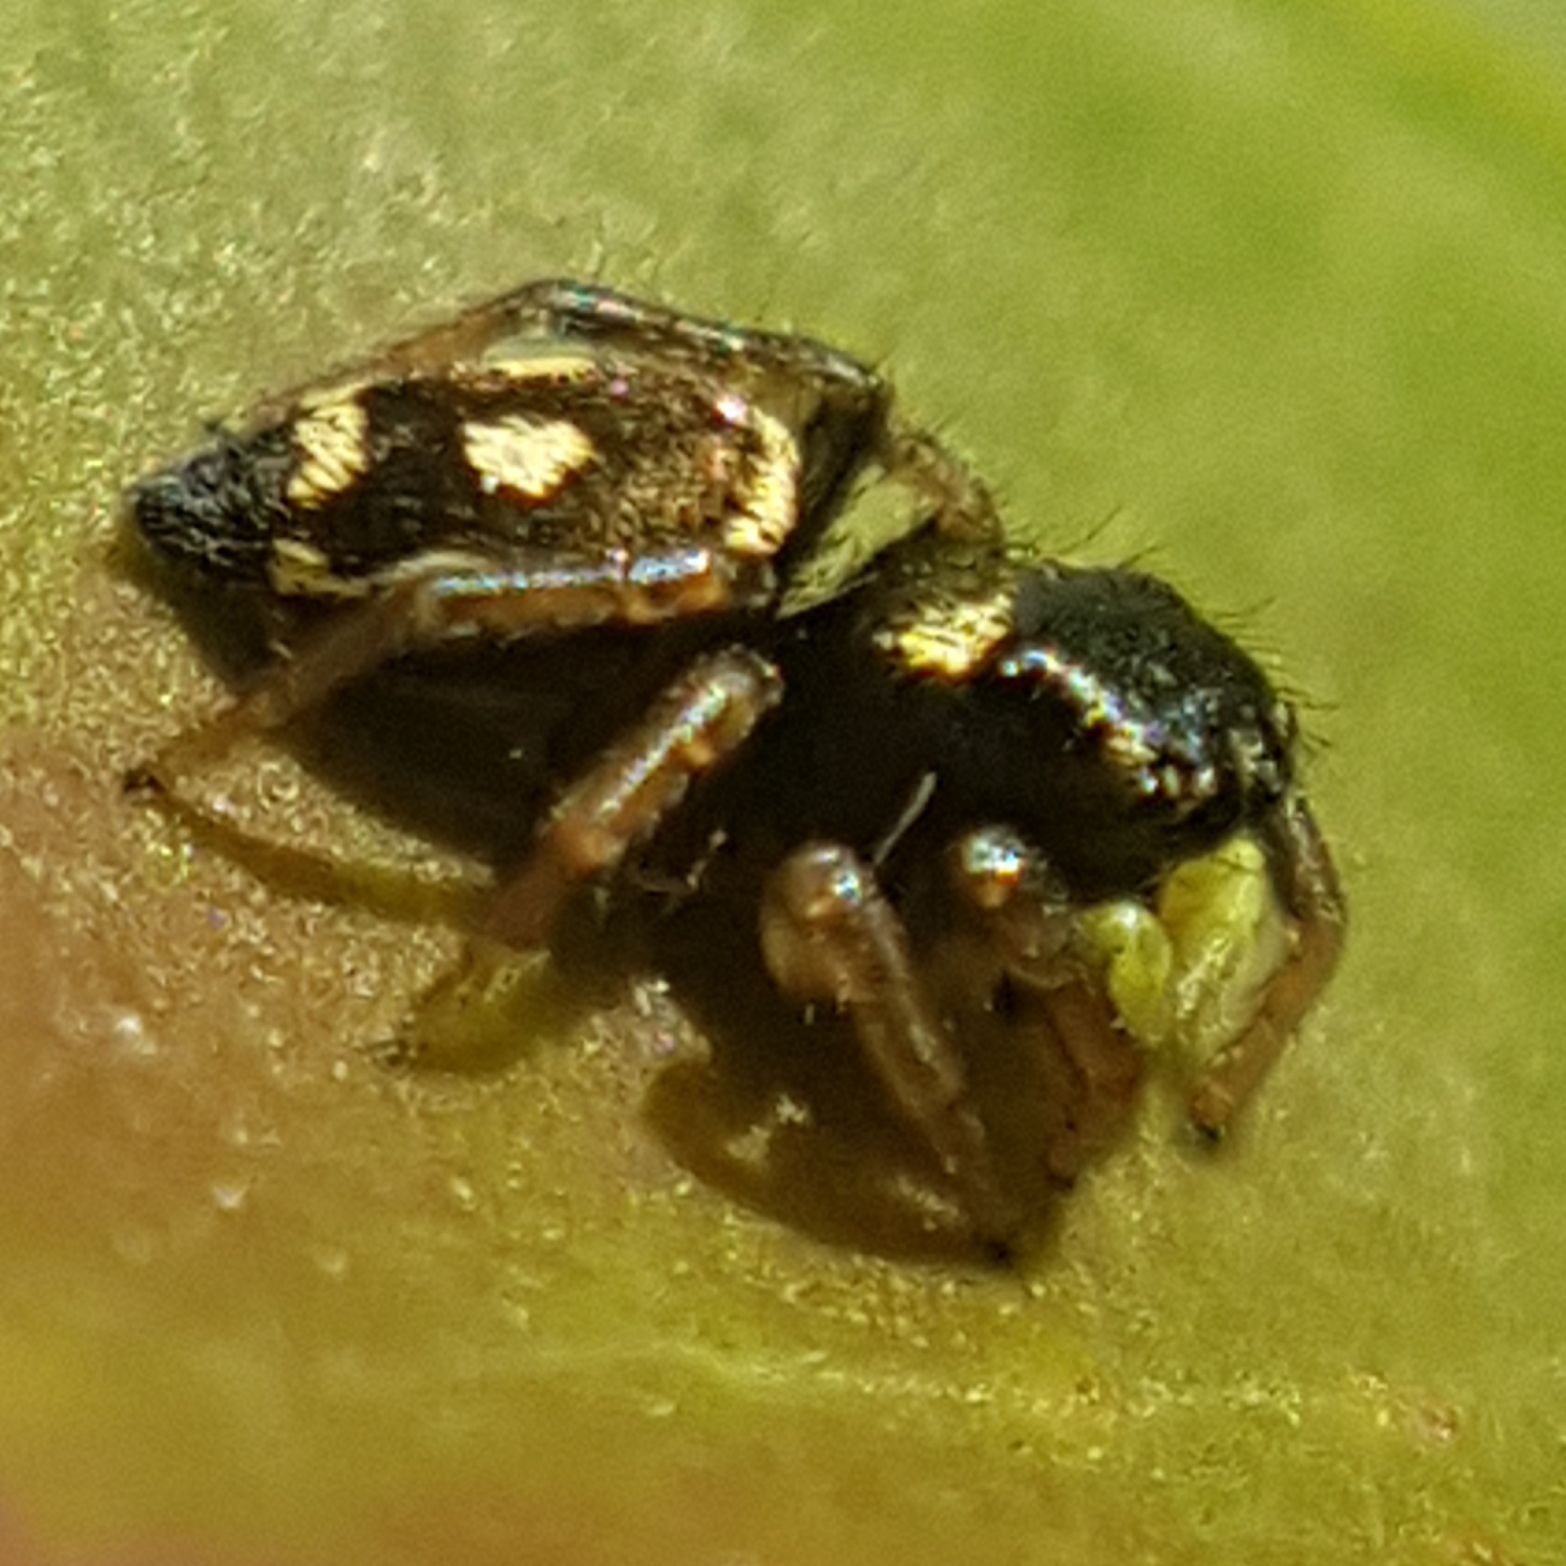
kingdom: Animalia
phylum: Arthropoda
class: Arachnida
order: Araneae
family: Salticidae
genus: Heliophanus
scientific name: Heliophanus apiatus
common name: Sun jumping spider
